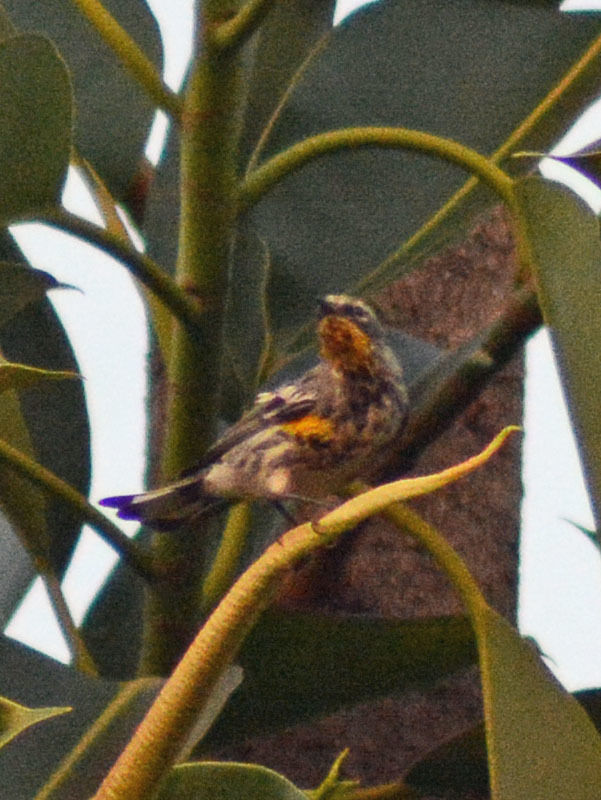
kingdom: Animalia
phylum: Chordata
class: Aves
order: Passeriformes
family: Parulidae
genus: Setophaga
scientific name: Setophaga auduboni
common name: Audubon's warbler
